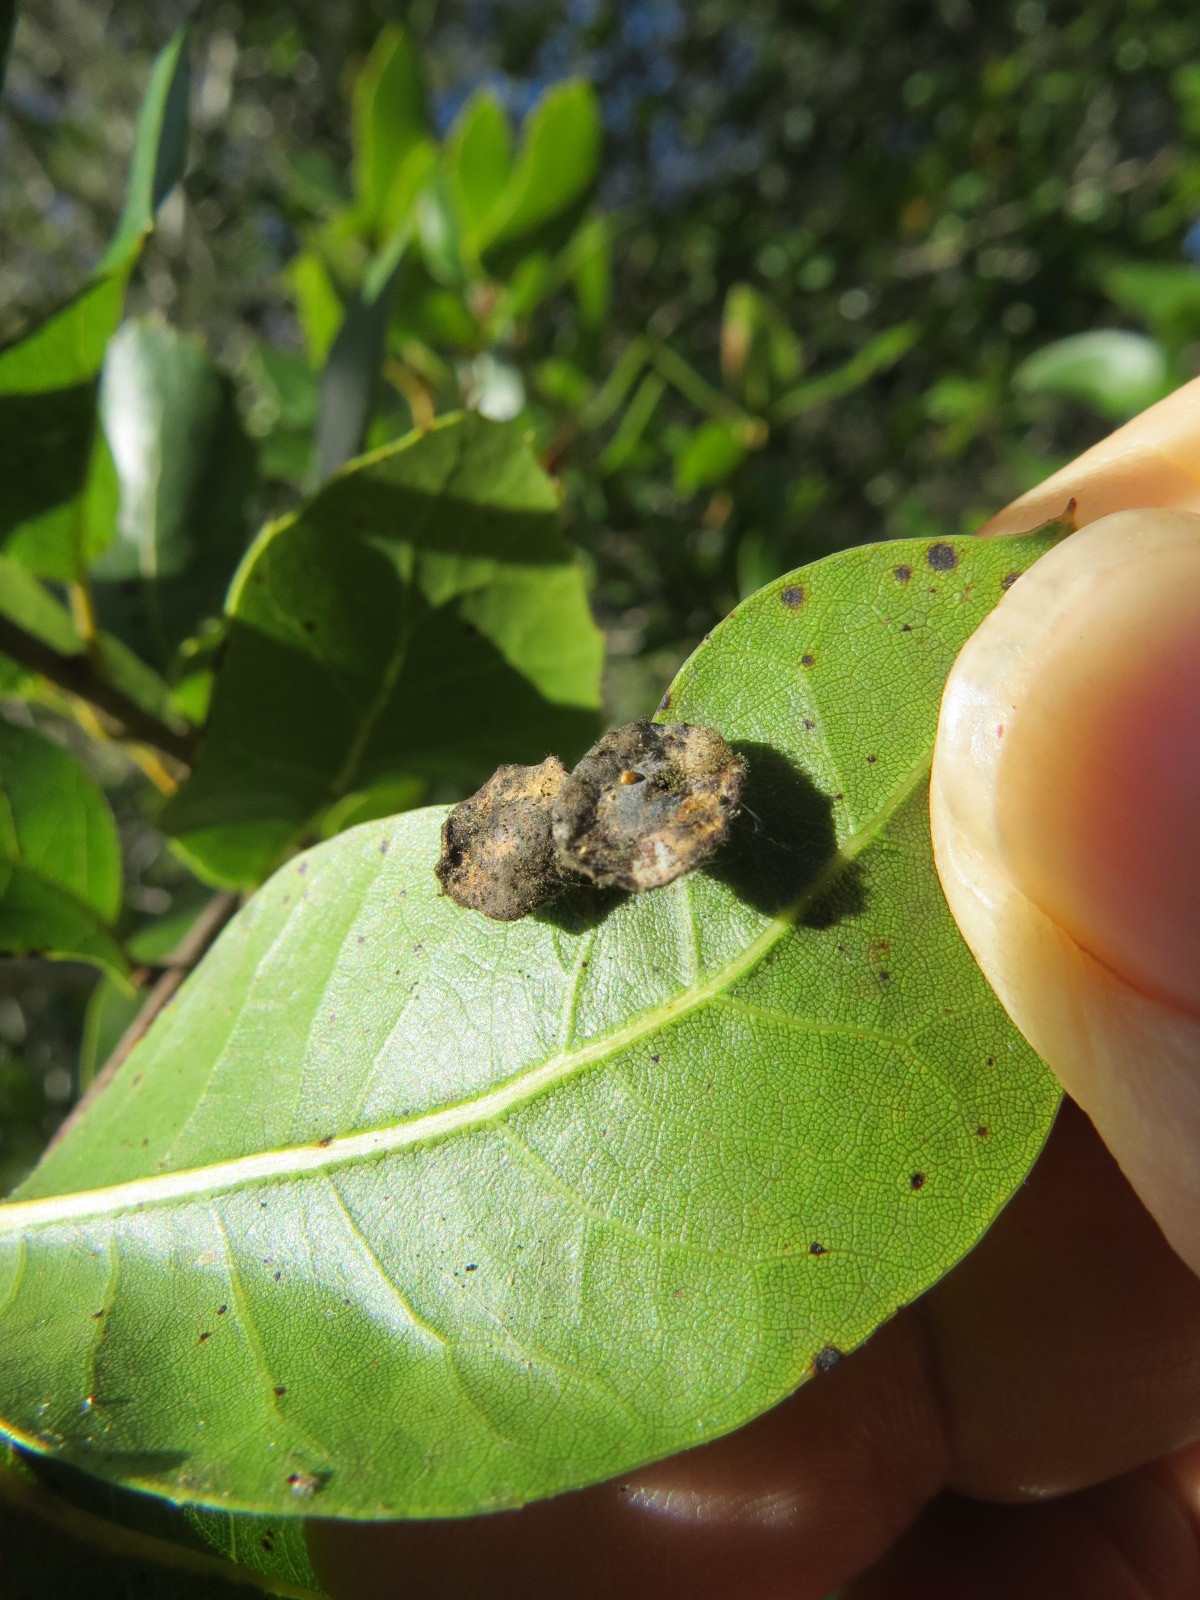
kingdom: Animalia
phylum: Arthropoda
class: Insecta
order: Hymenoptera
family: Cynipidae
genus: Amphibolips
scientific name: Amphibolips quercuspomiformis
